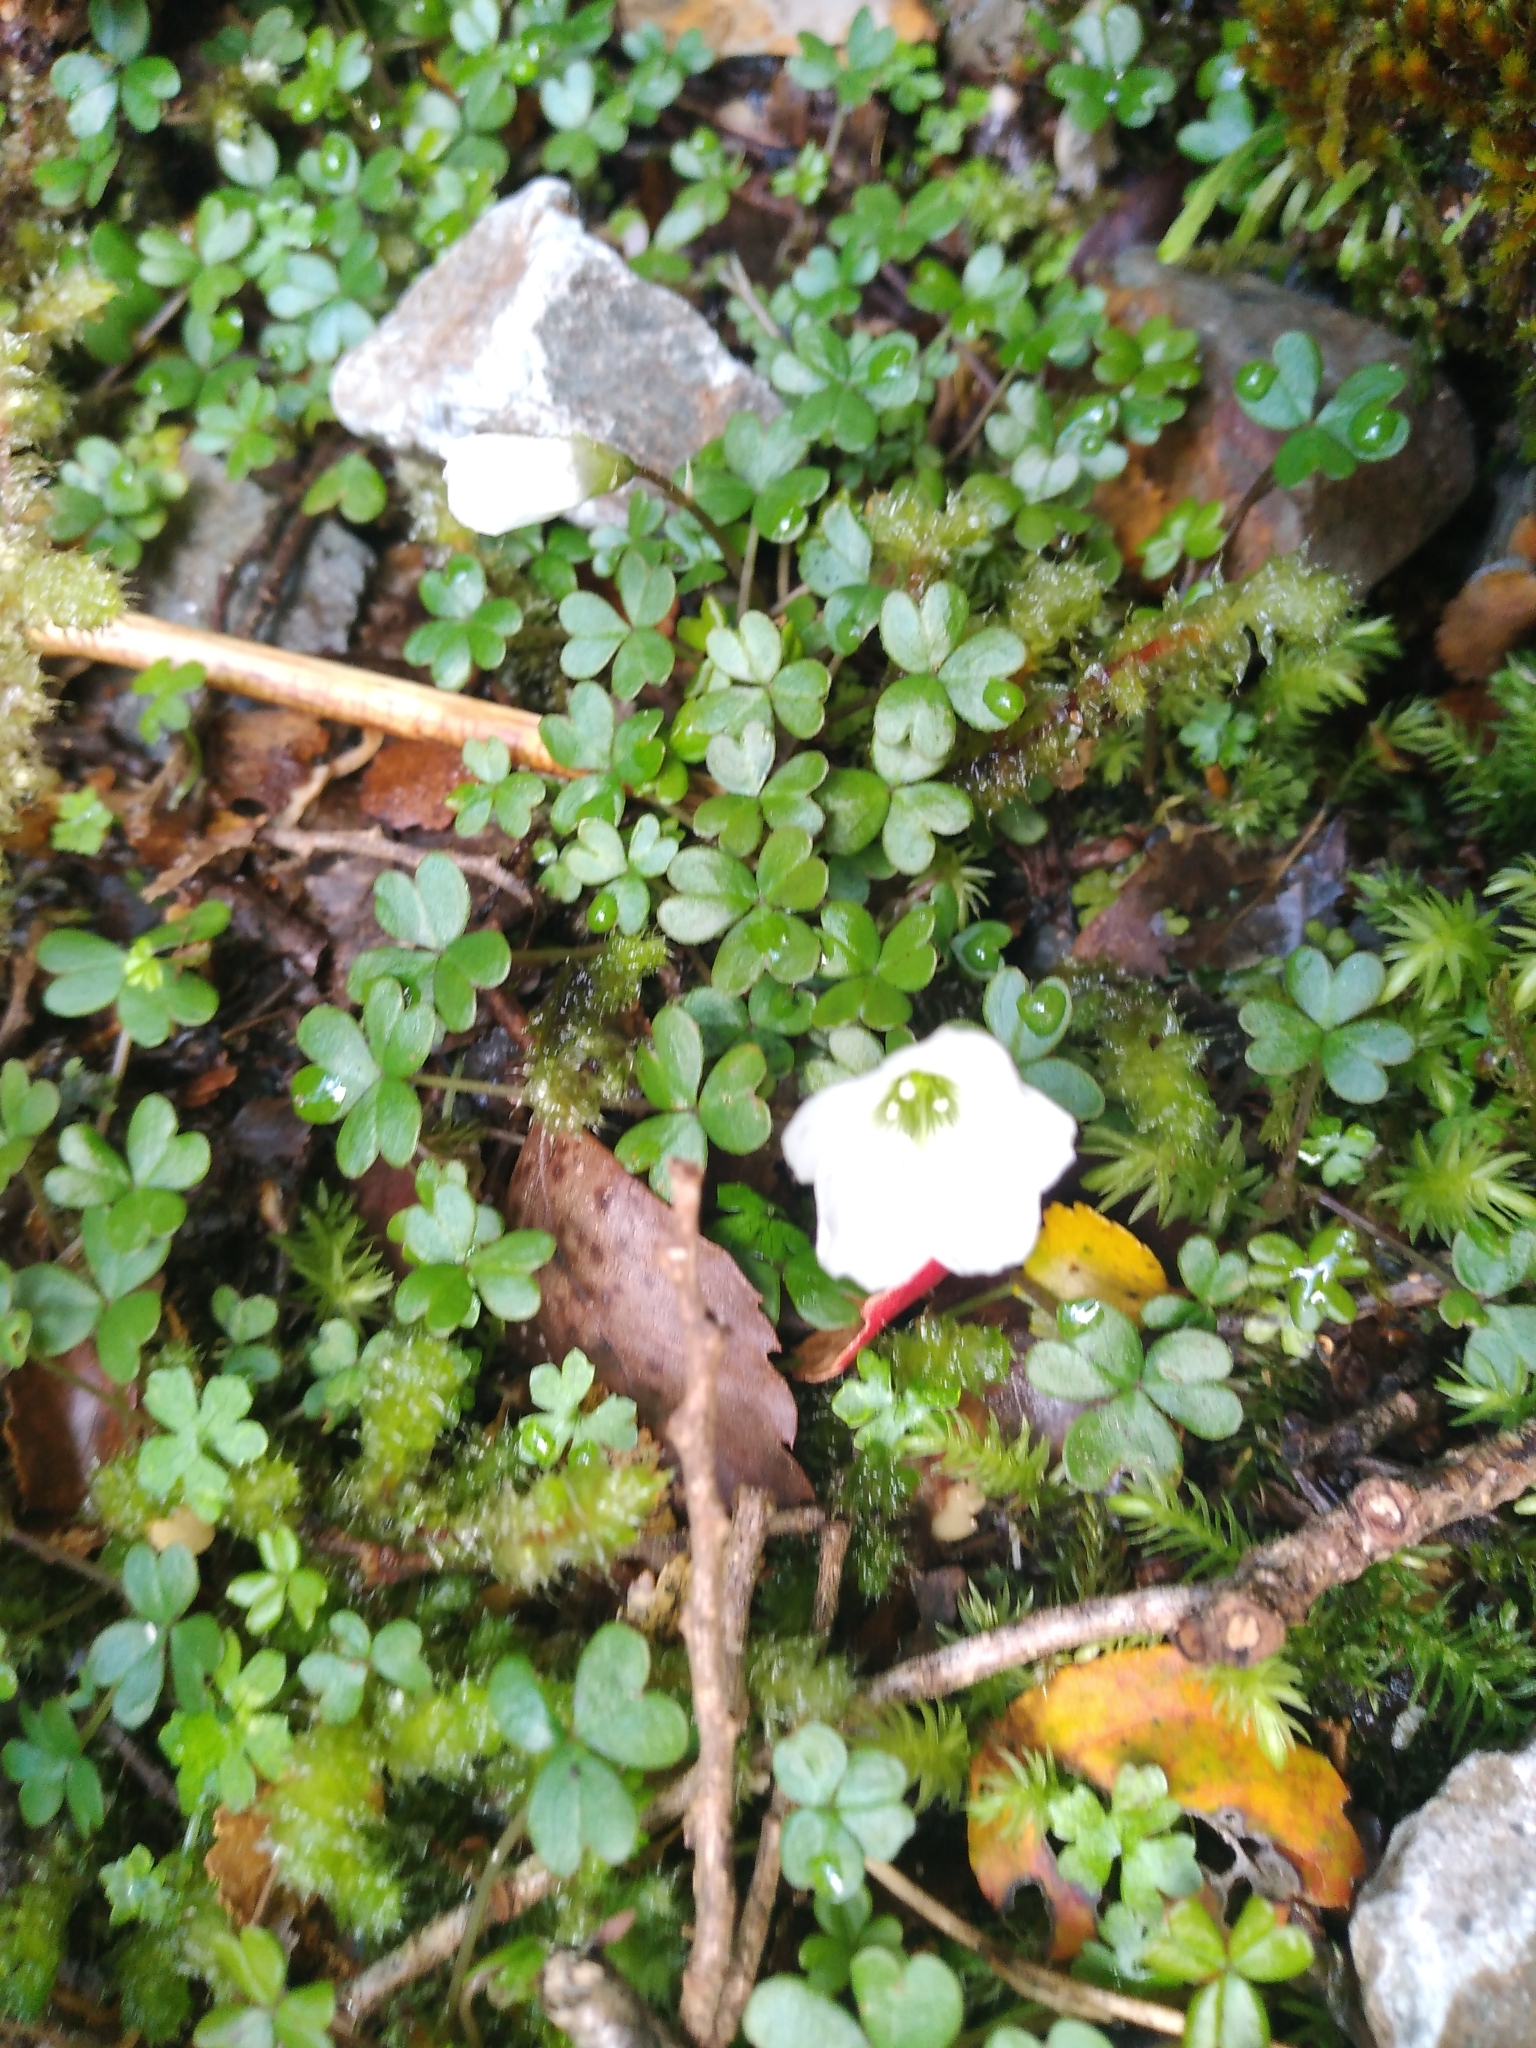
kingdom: Plantae
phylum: Tracheophyta
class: Magnoliopsida
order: Oxalidales
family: Oxalidaceae
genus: Oxalis
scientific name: Oxalis magellanica
